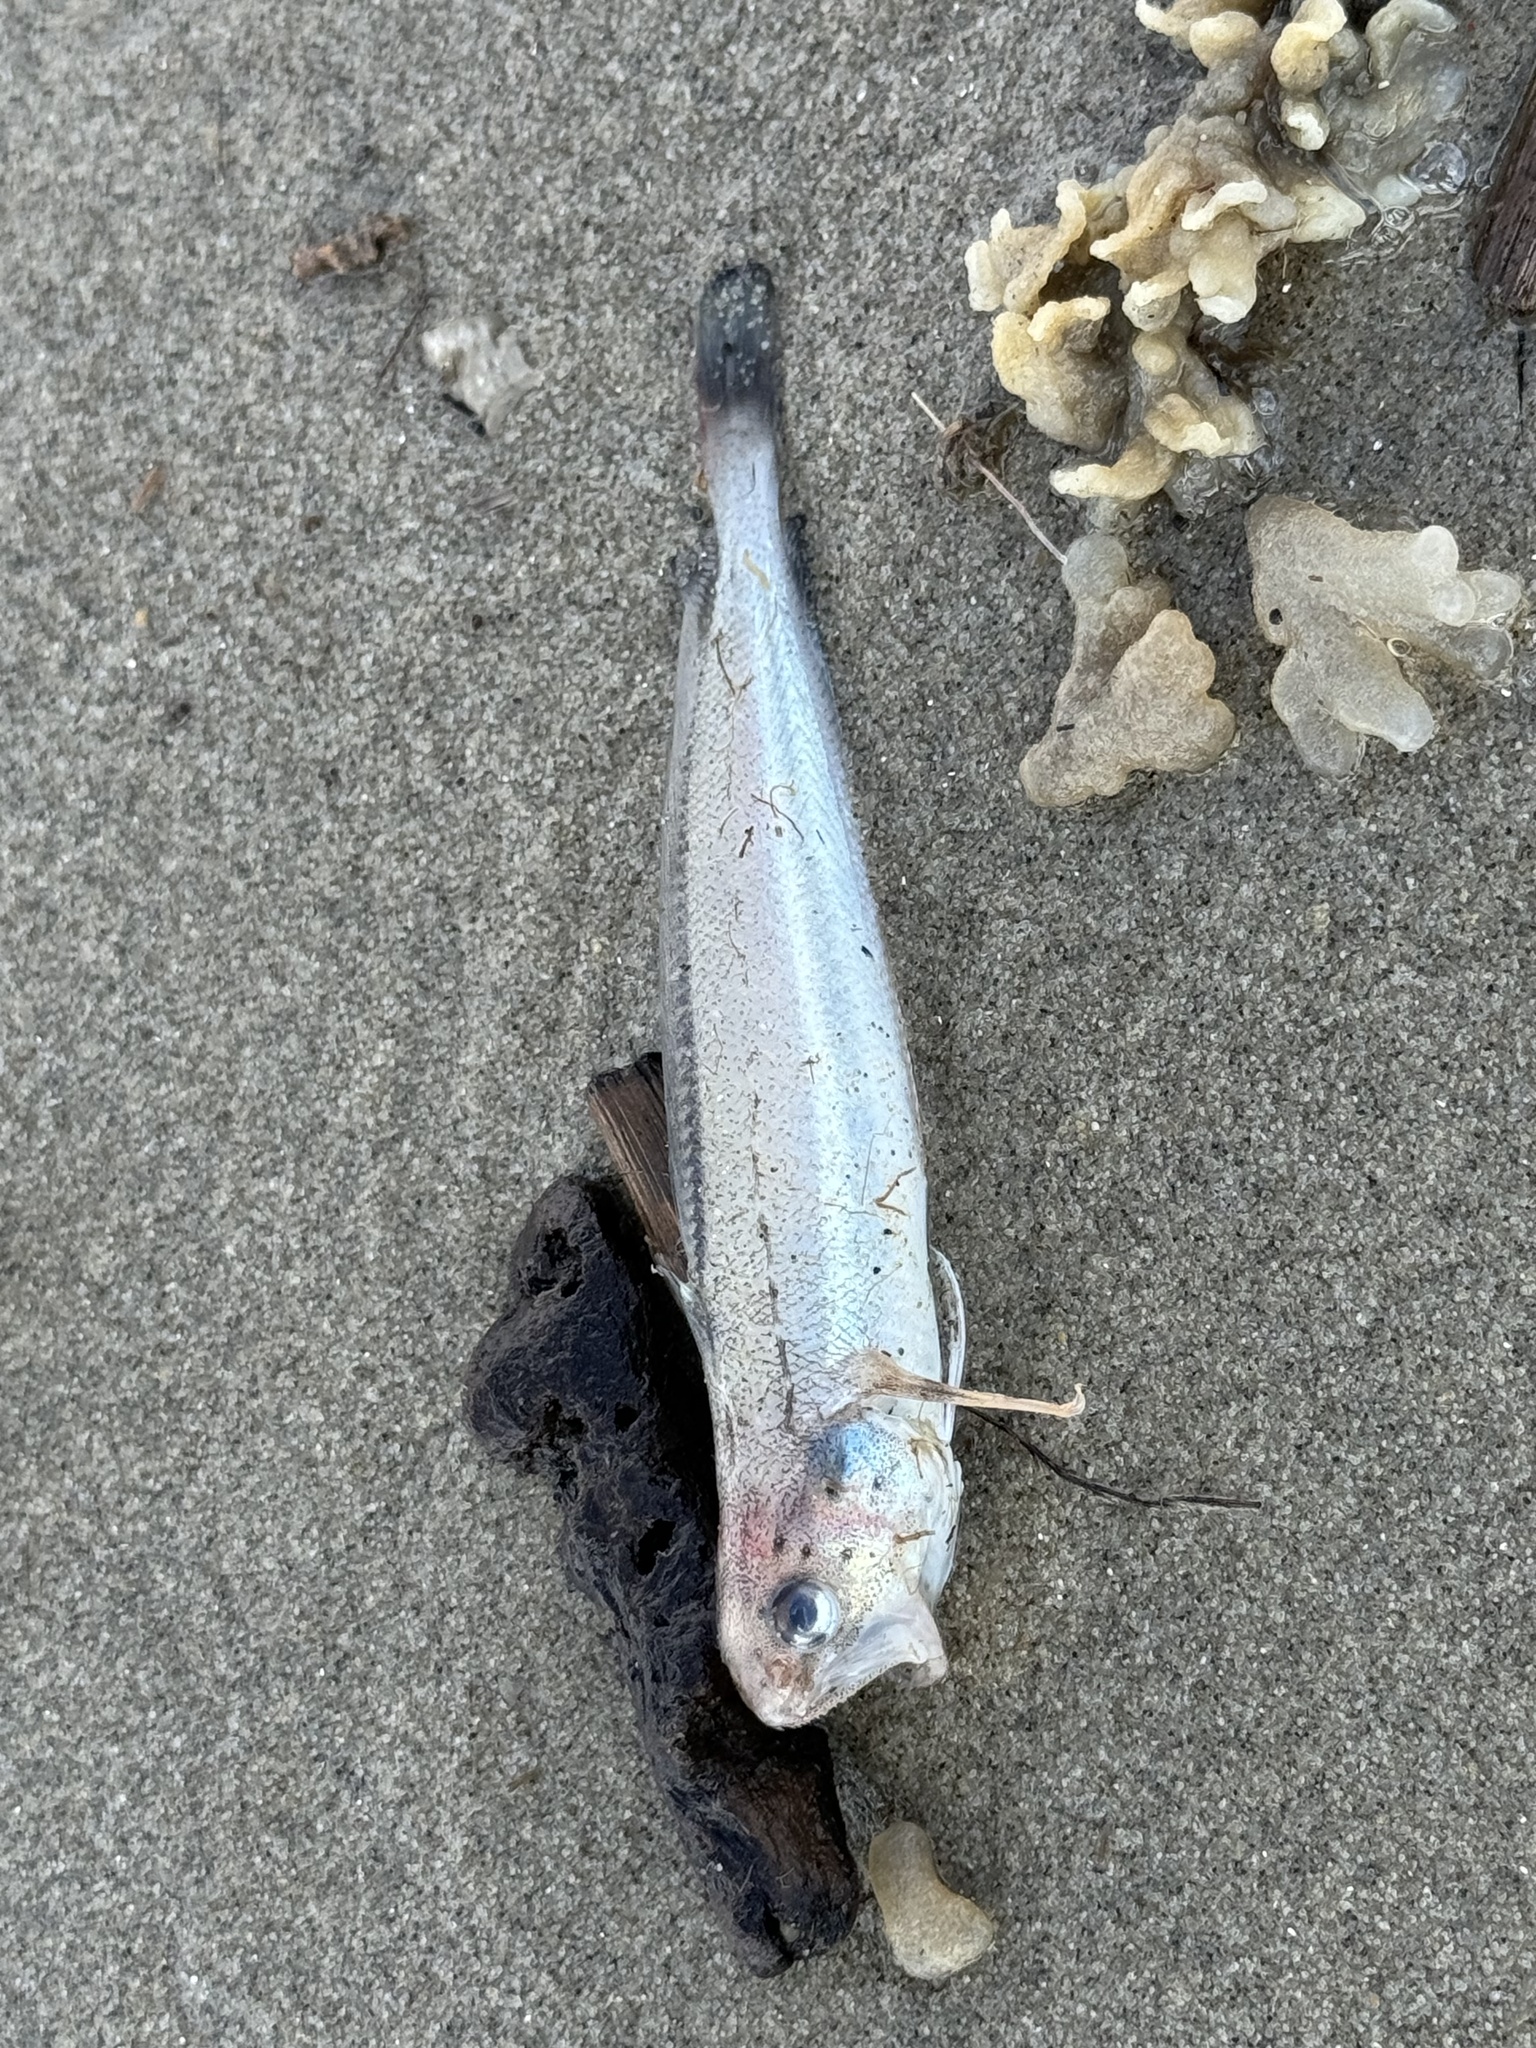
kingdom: Animalia
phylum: Chordata
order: Gadiformes
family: Phycidae
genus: Urophycis
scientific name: Urophycis regia
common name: Spotted codling
